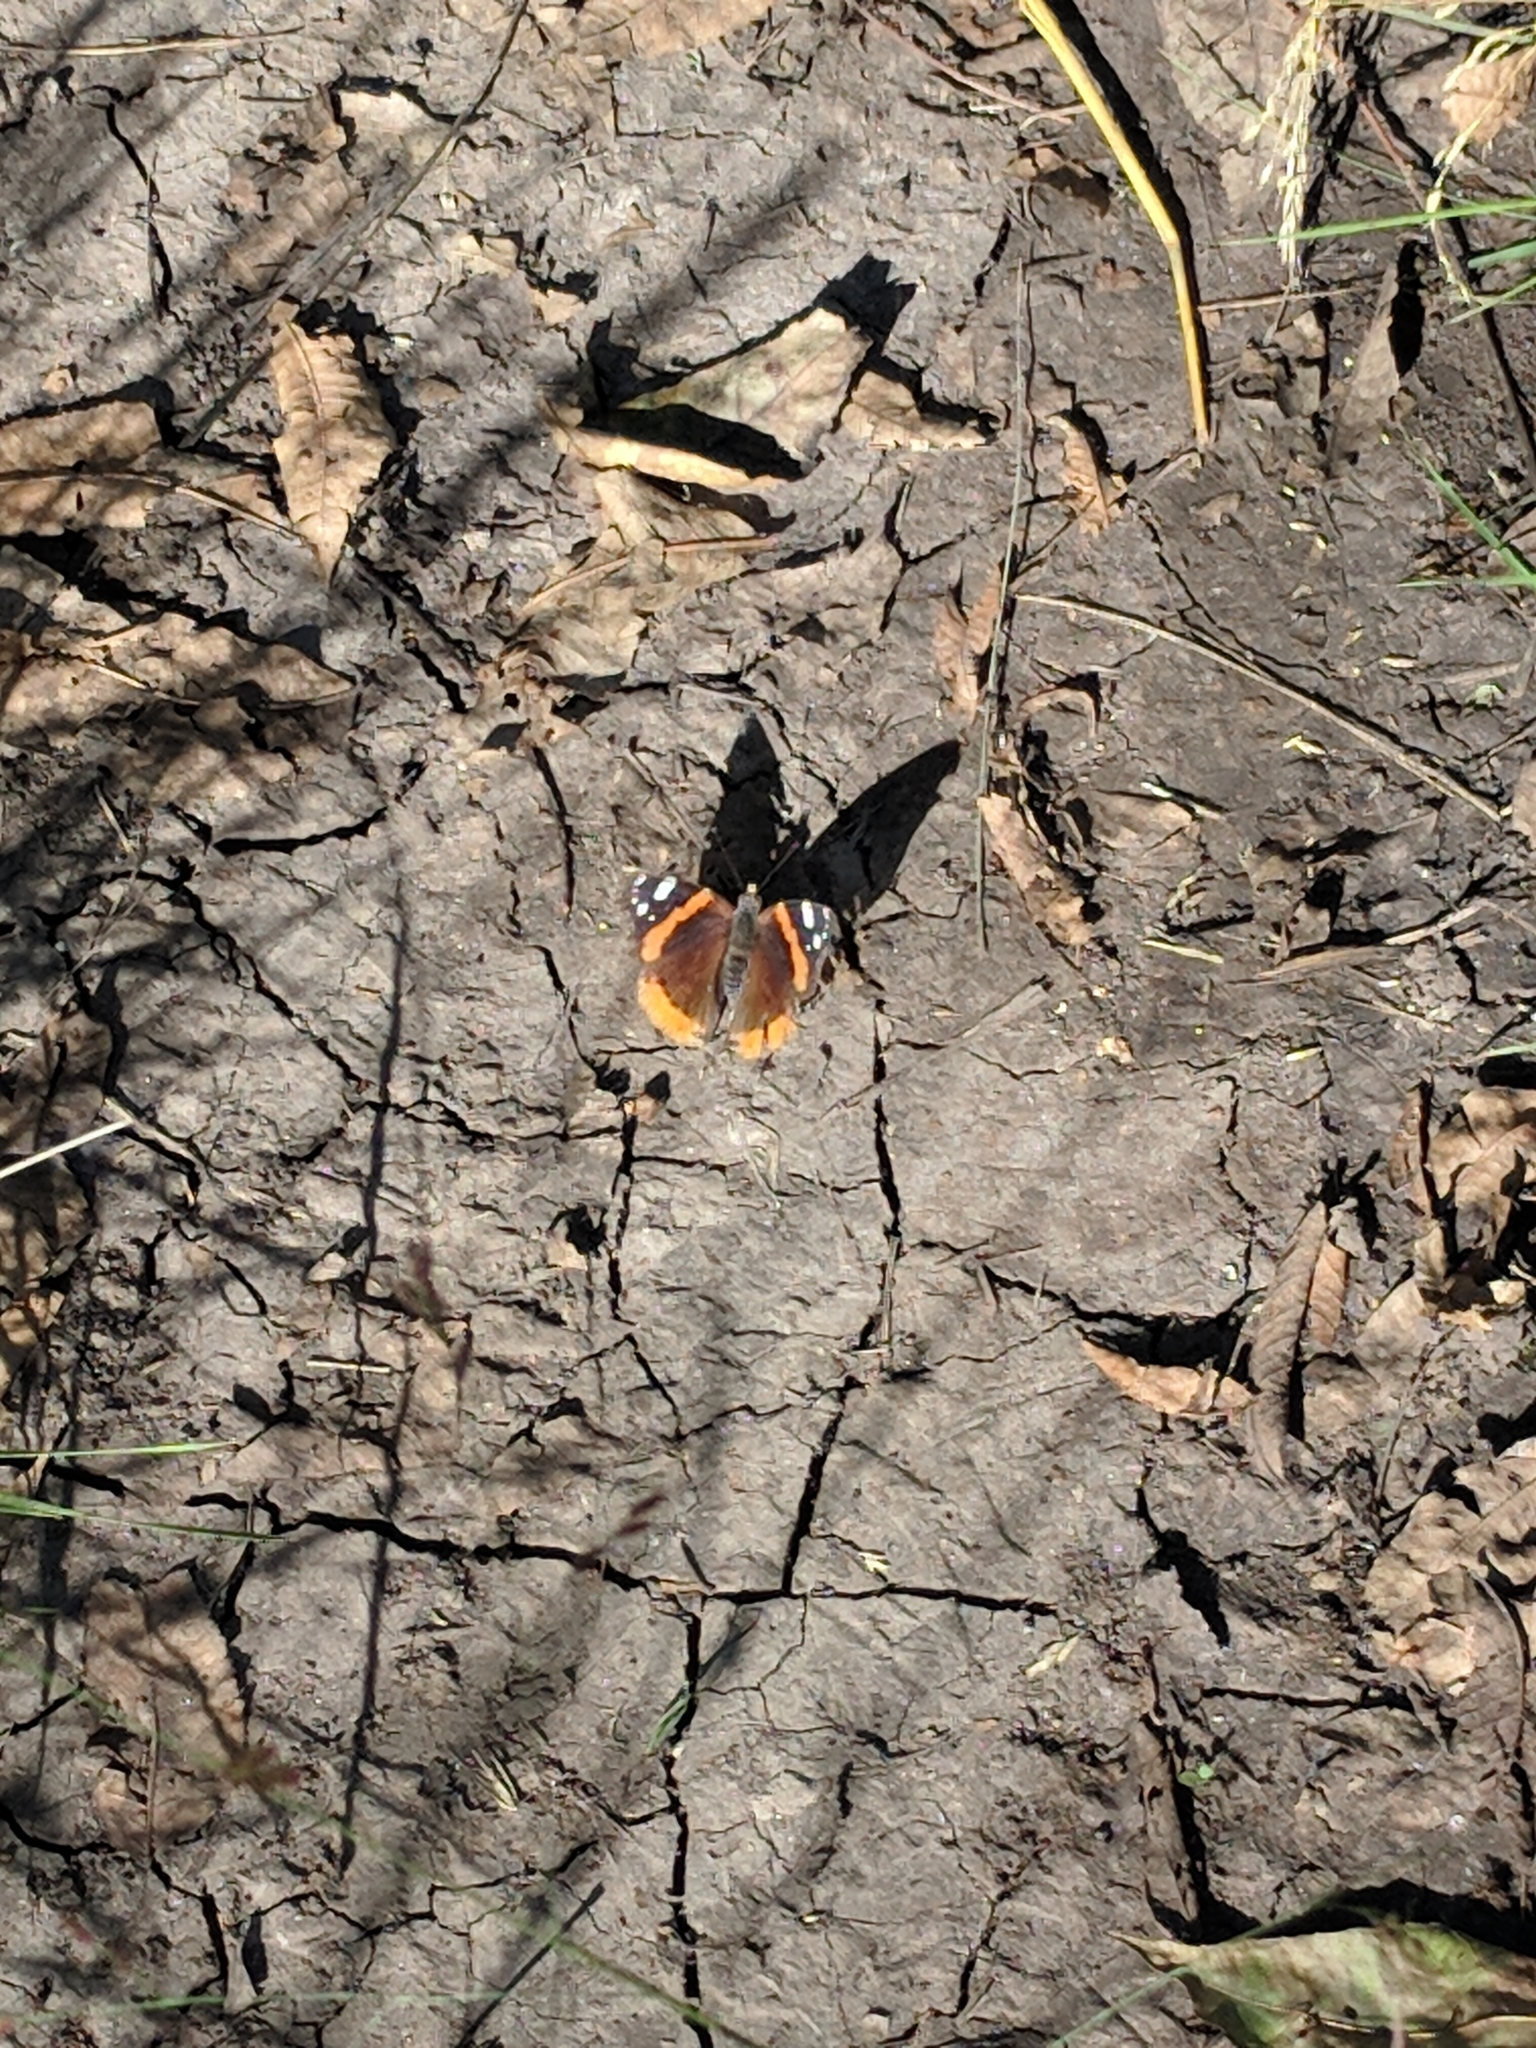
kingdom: Animalia
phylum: Arthropoda
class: Insecta
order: Lepidoptera
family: Nymphalidae
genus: Vanessa
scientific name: Vanessa atalanta
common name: Red admiral
